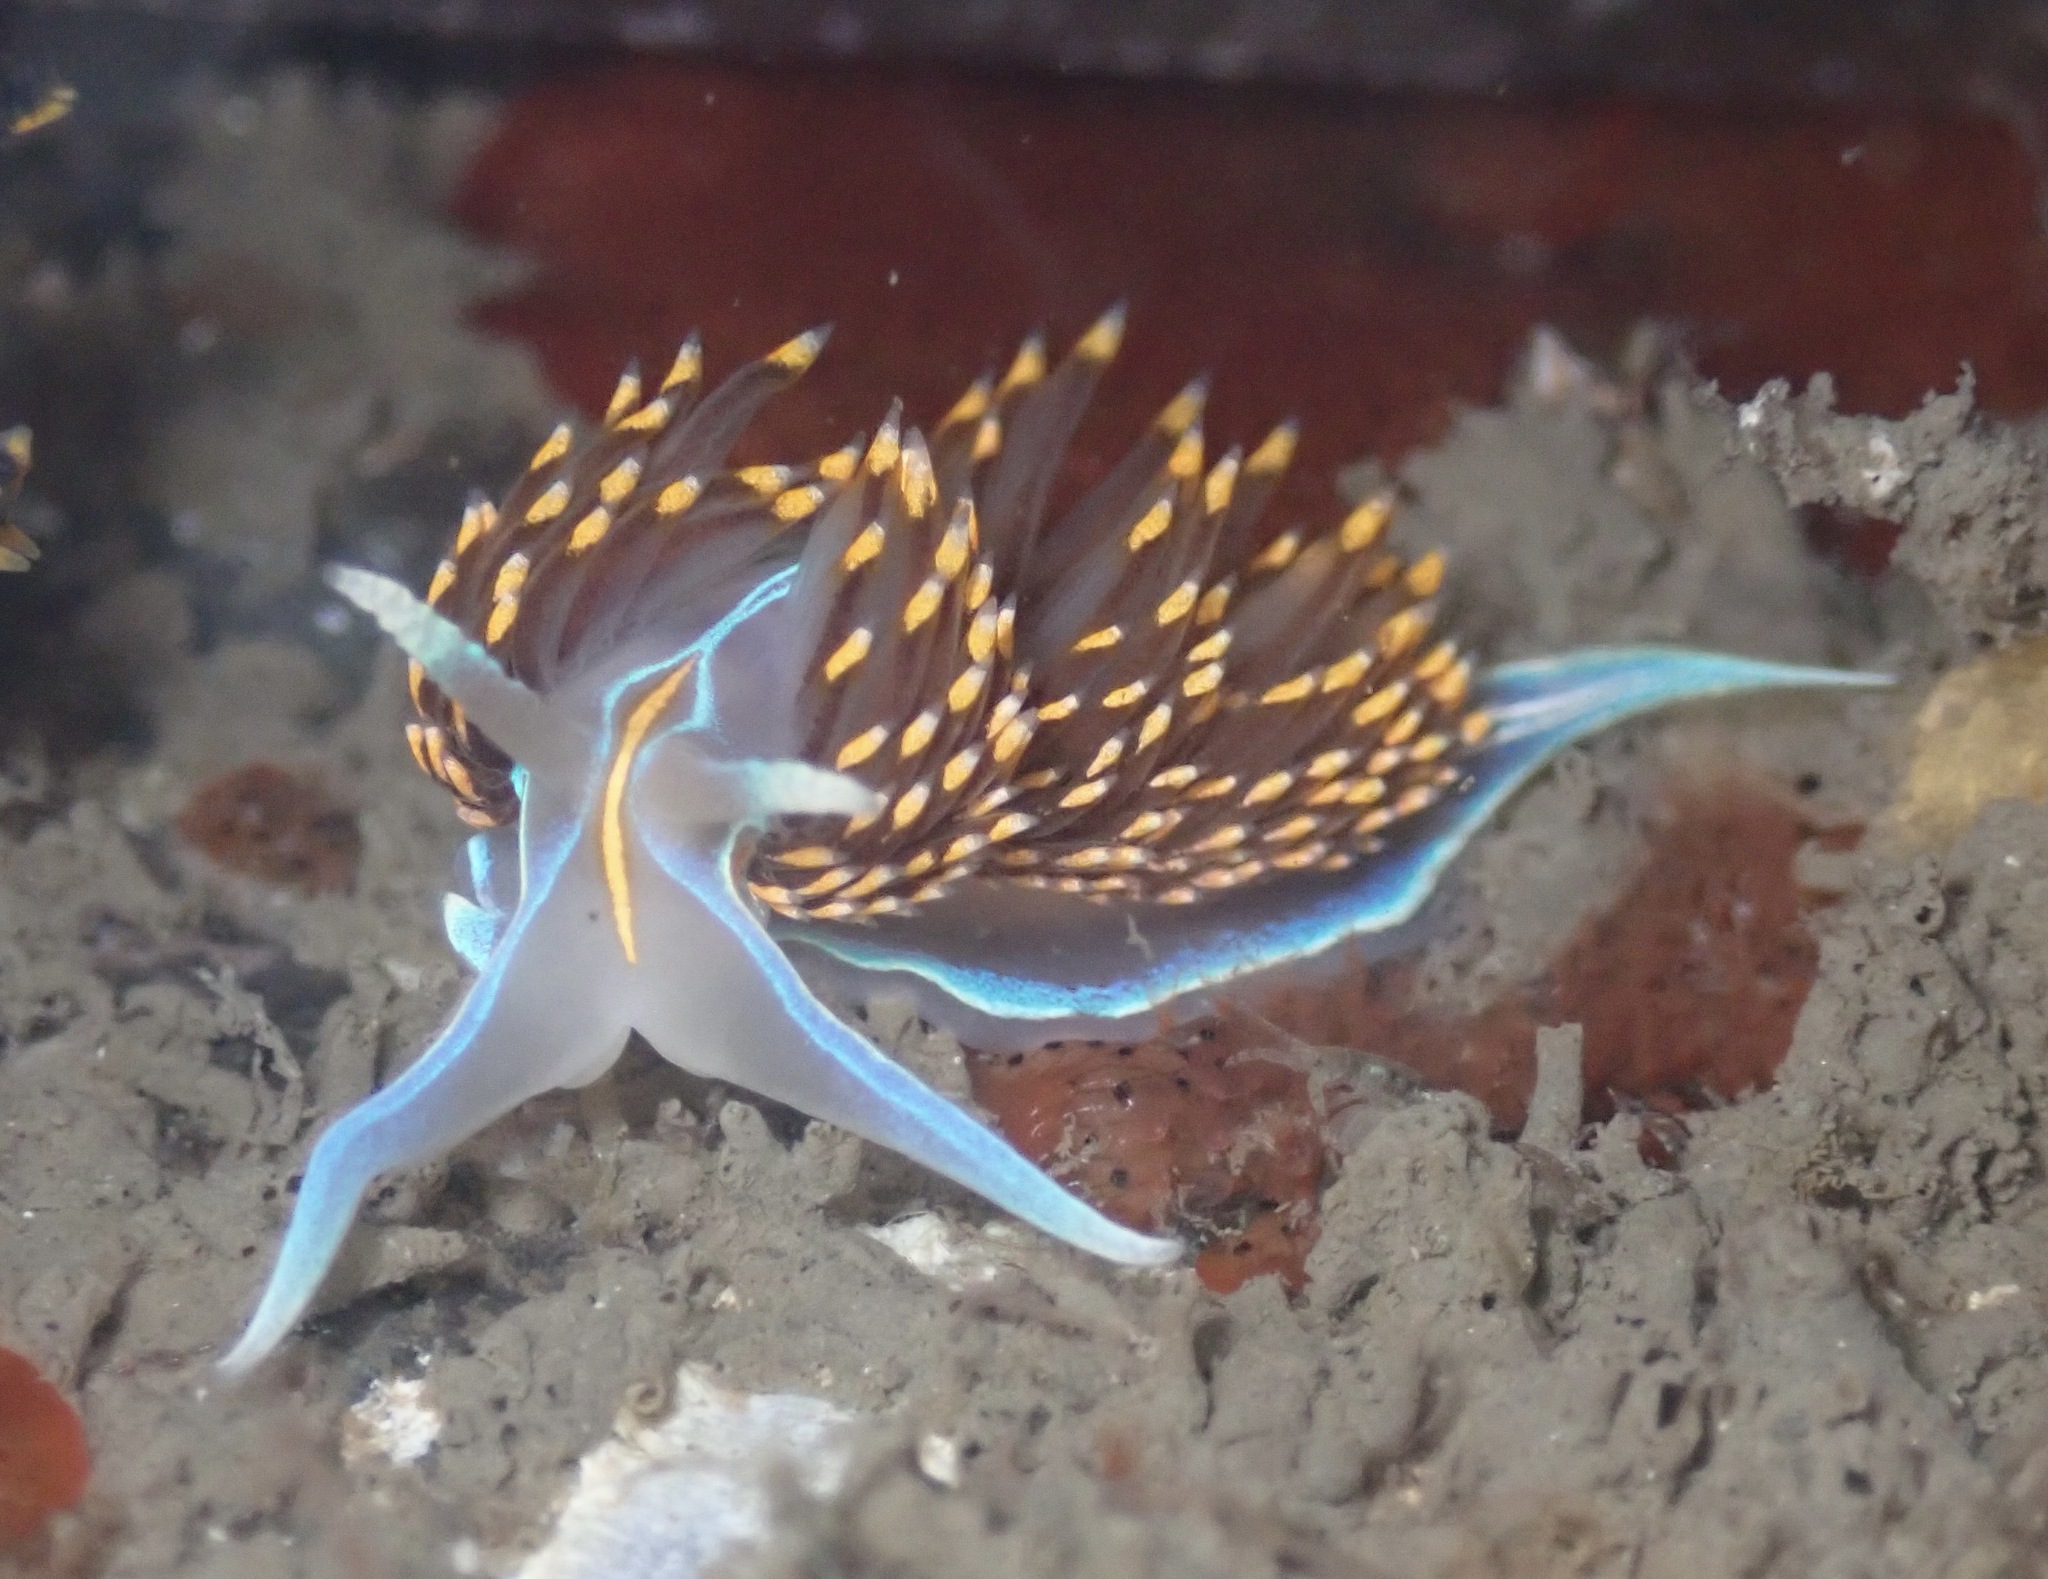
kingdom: Animalia
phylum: Mollusca
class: Gastropoda
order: Nudibranchia
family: Myrrhinidae
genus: Hermissenda
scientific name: Hermissenda opalescens
